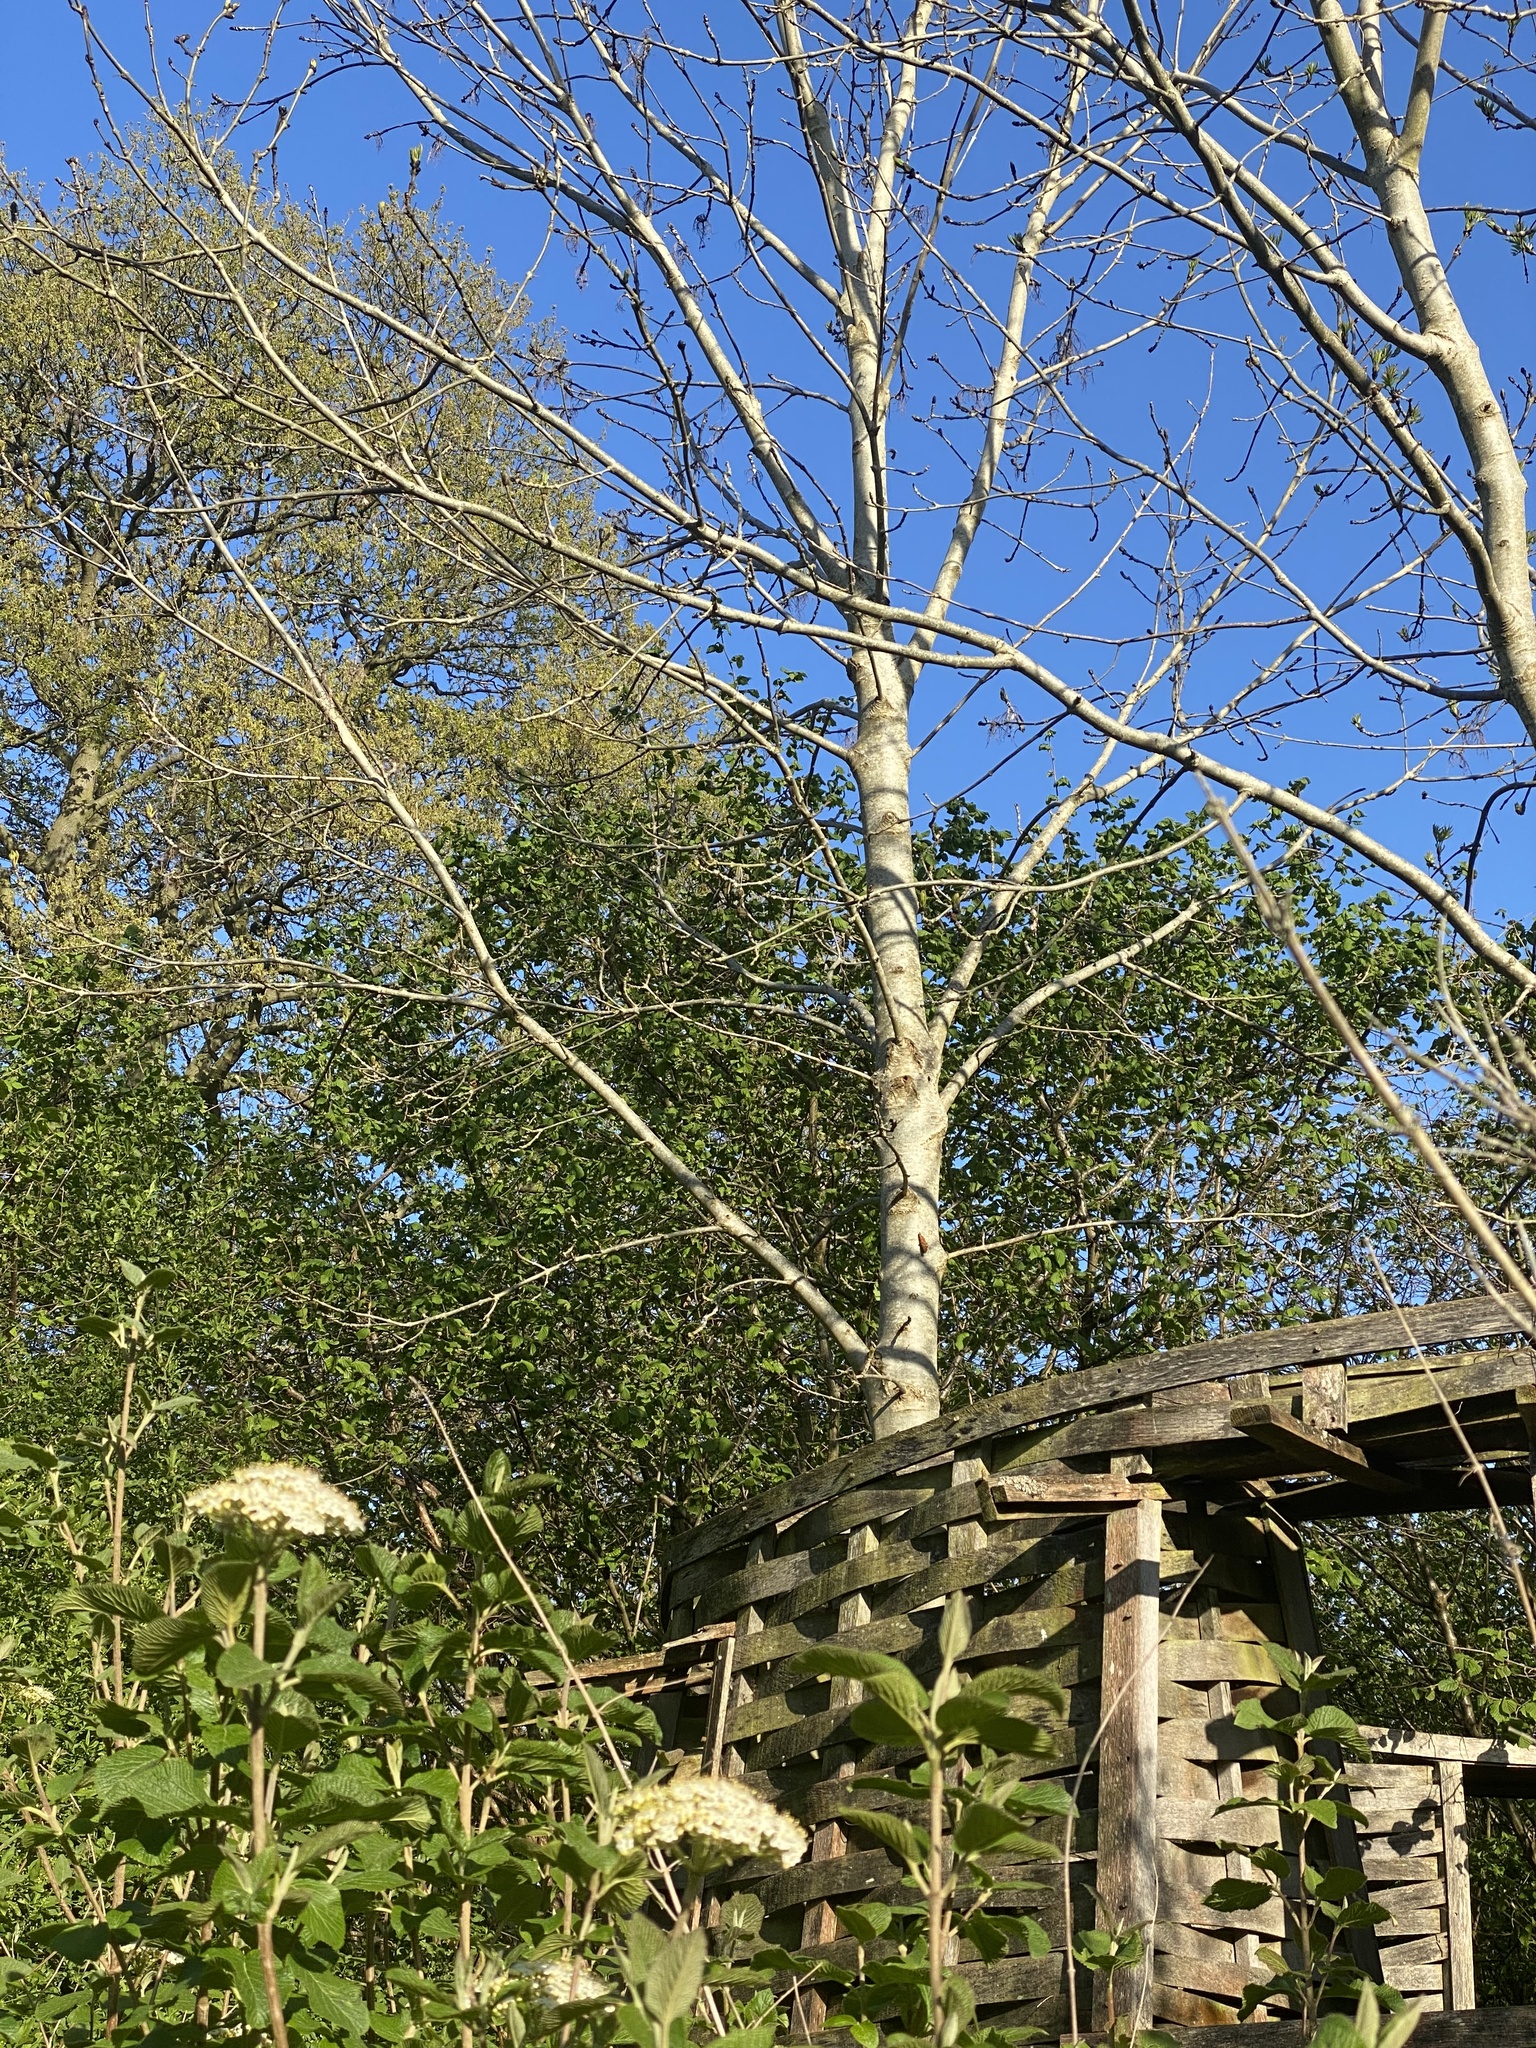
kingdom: Animalia
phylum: Arthropoda
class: Insecta
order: Lepidoptera
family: Nymphalidae
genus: Polygonia
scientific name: Polygonia c-album
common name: Comma
